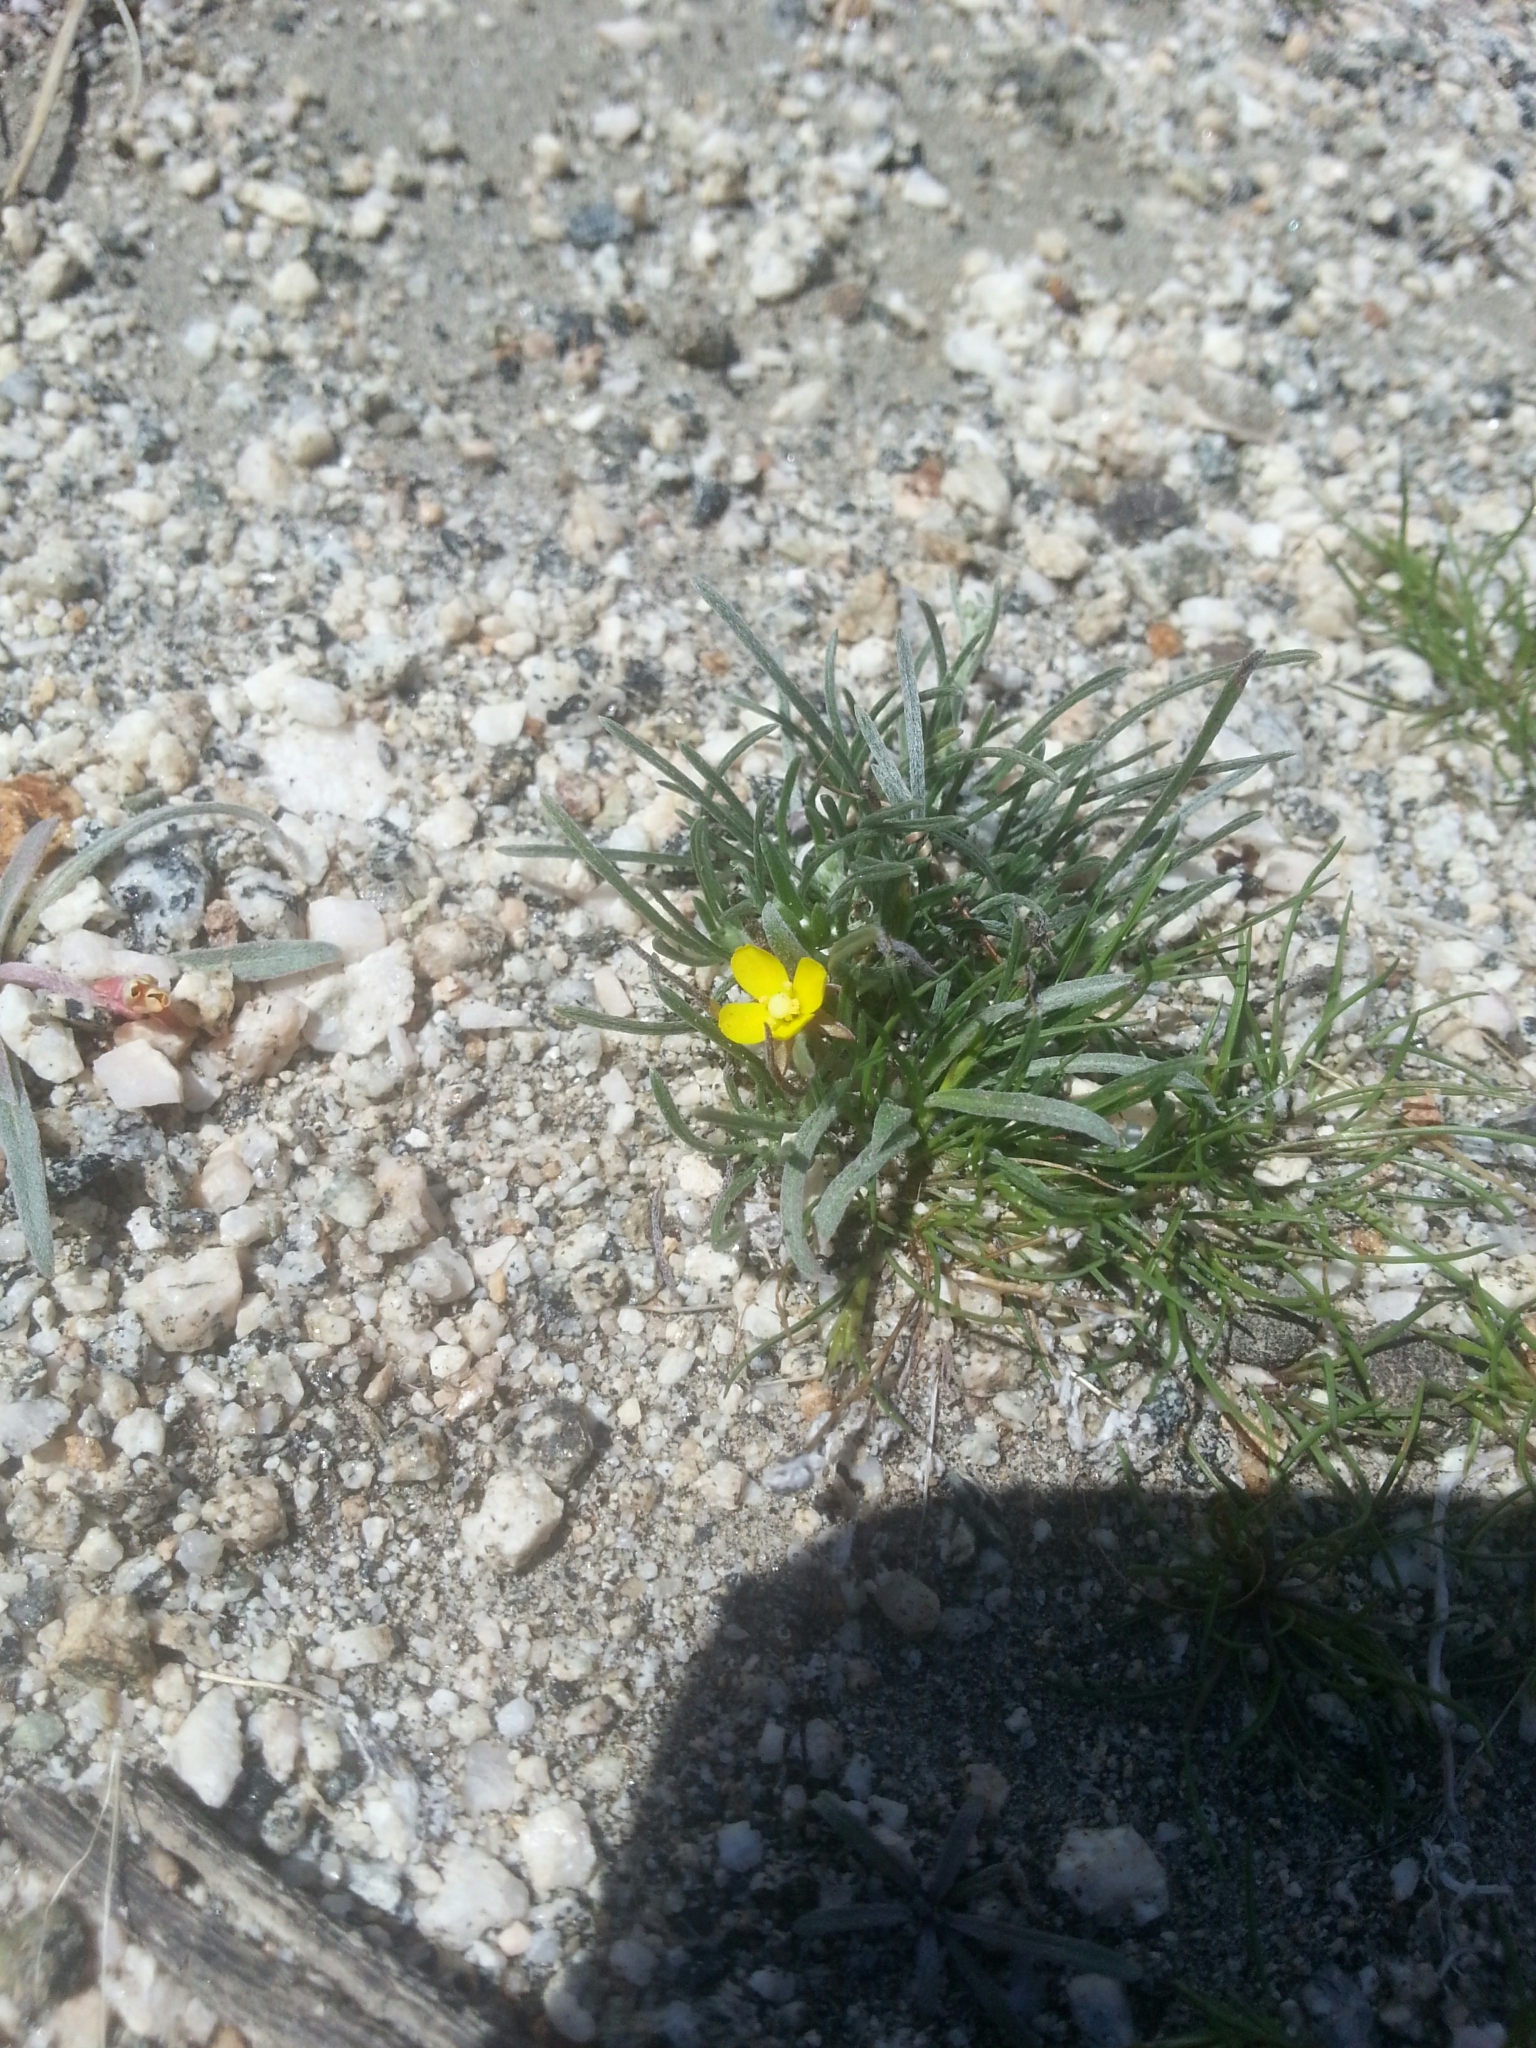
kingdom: Plantae
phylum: Tracheophyta
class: Magnoliopsida
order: Myrtales
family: Onagraceae
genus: Camissoniopsis
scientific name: Camissoniopsis pallida
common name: Paleyellow suncup
